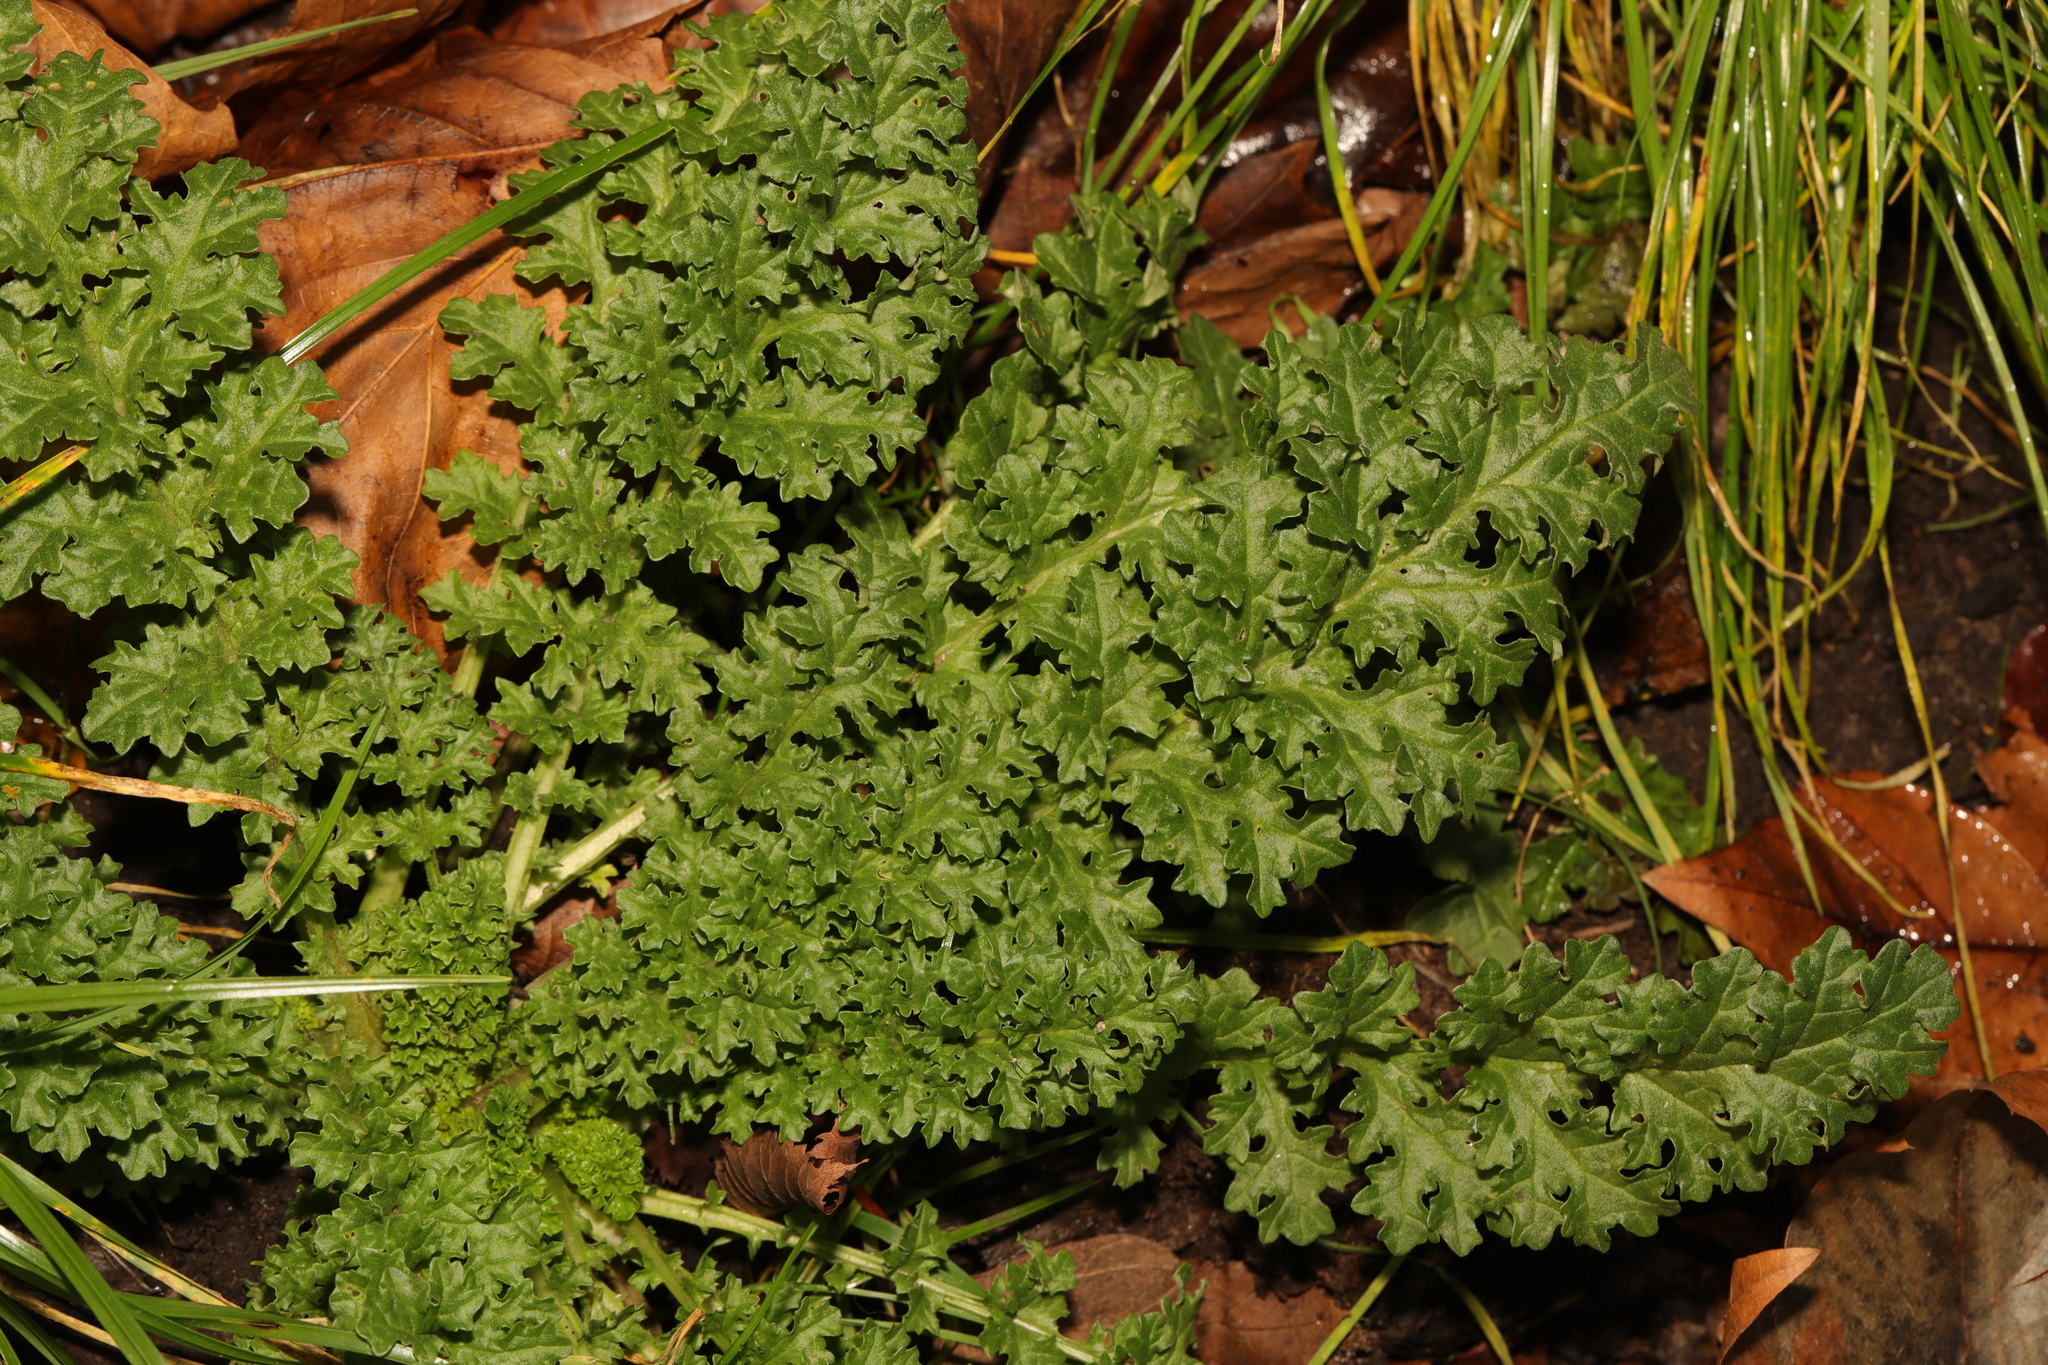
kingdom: Plantae
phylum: Tracheophyta
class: Magnoliopsida
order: Asterales
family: Asteraceae
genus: Jacobaea
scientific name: Jacobaea vulgaris
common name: Stinking willie
